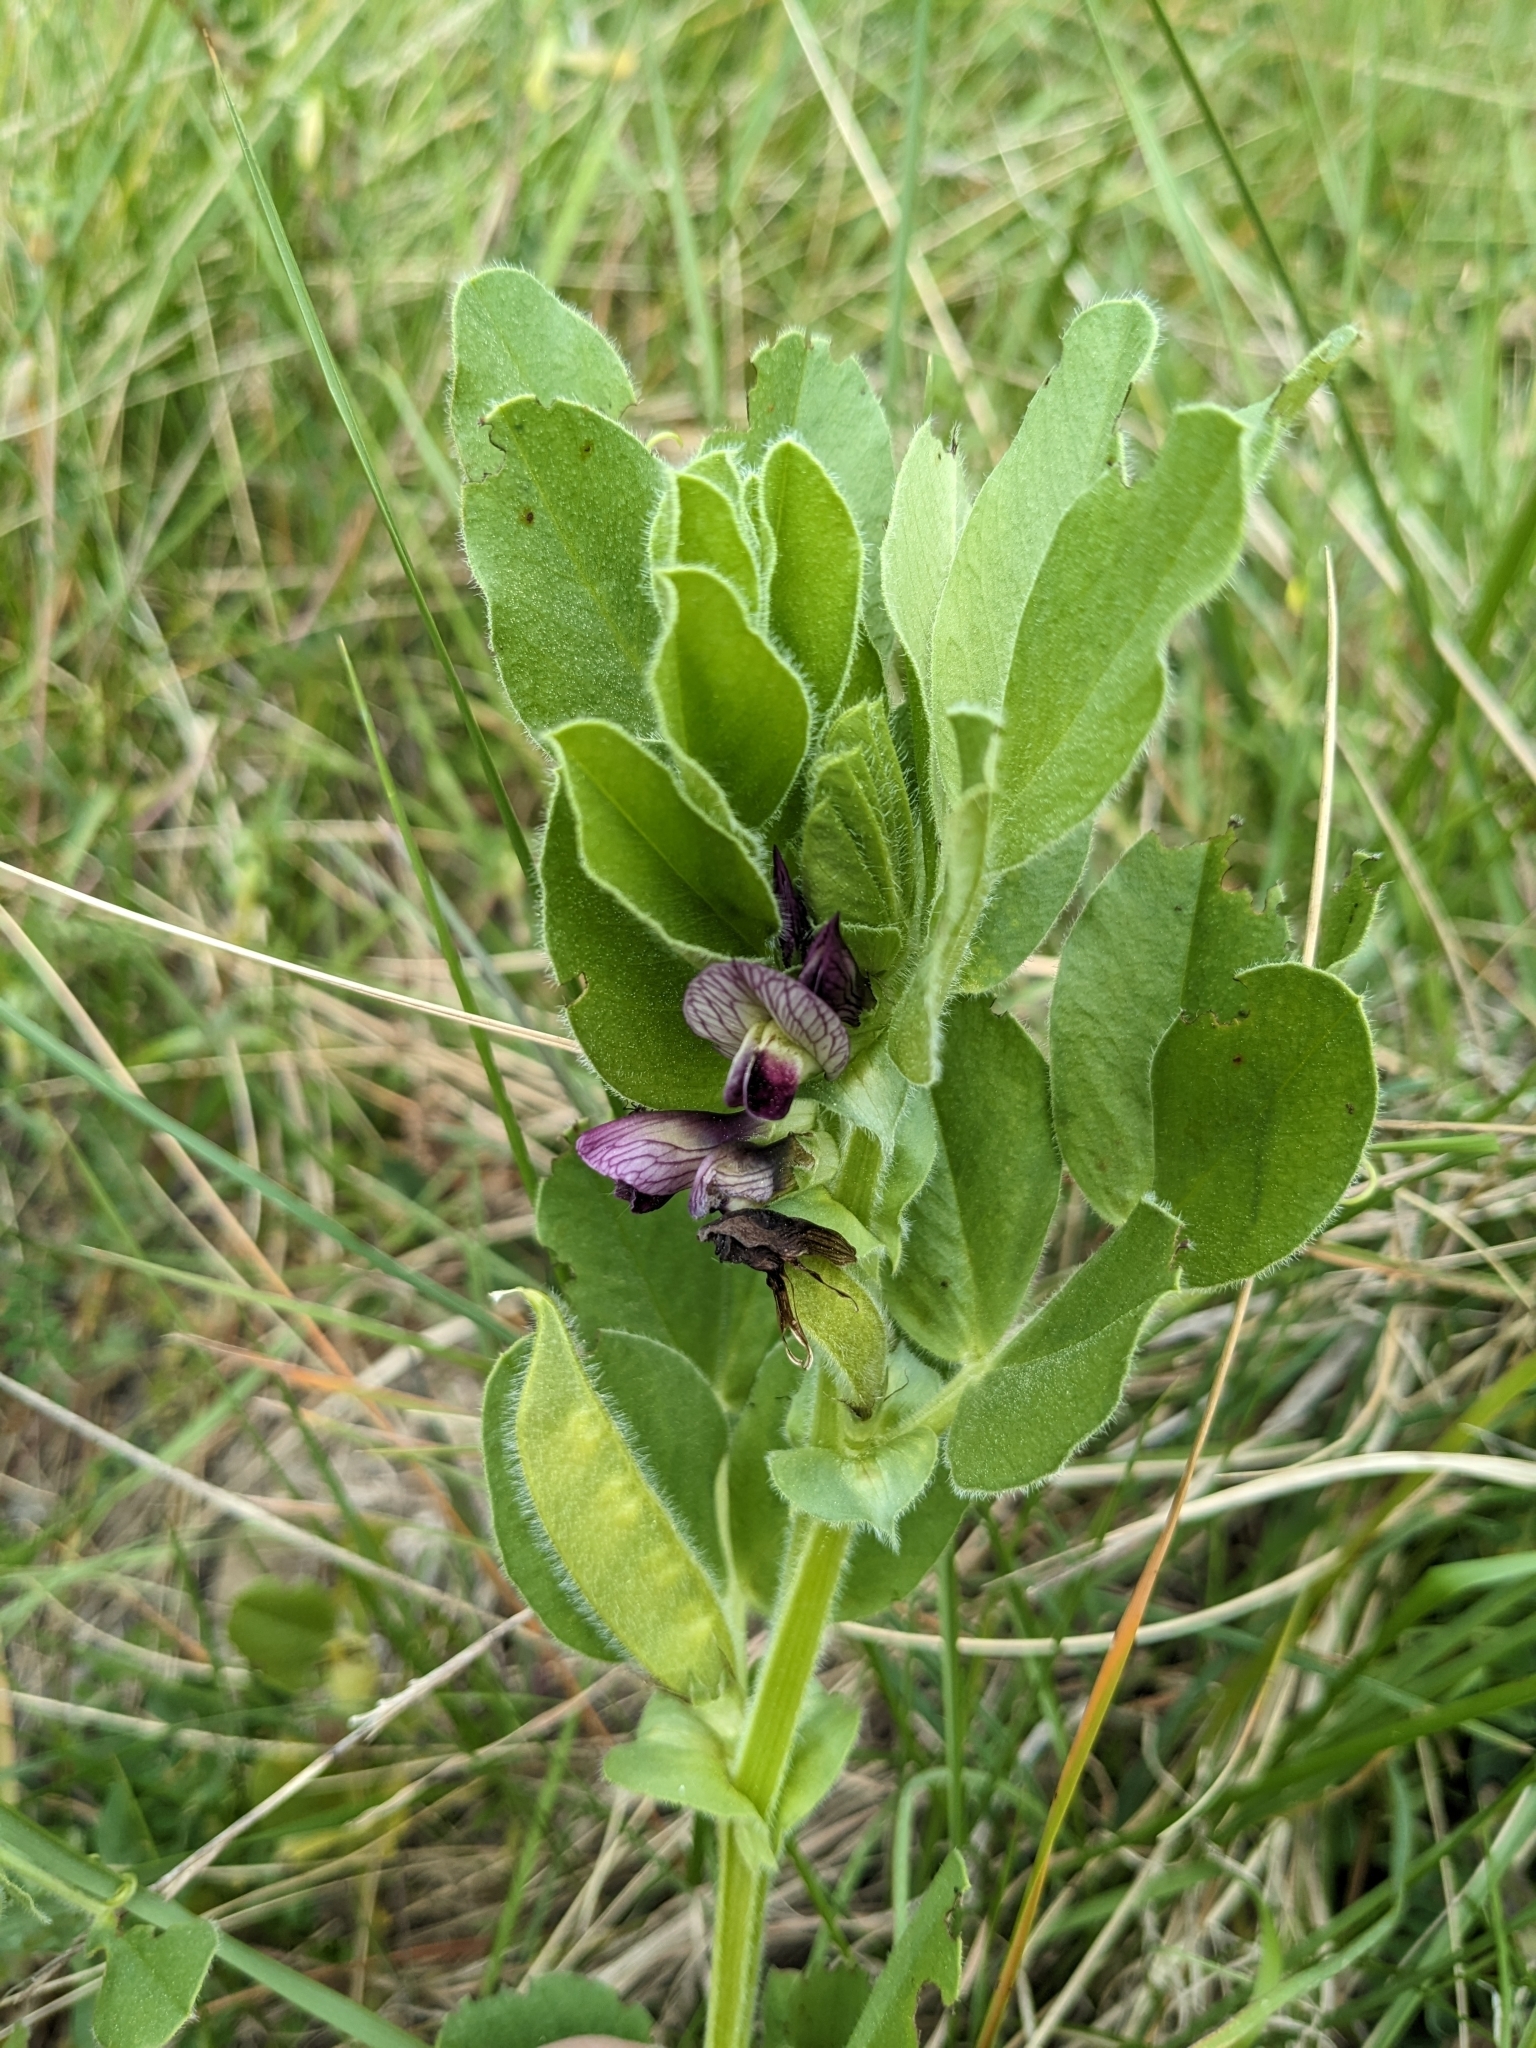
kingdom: Plantae
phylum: Tracheophyta
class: Magnoliopsida
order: Fabales
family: Fabaceae
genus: Vicia
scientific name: Vicia johannis
